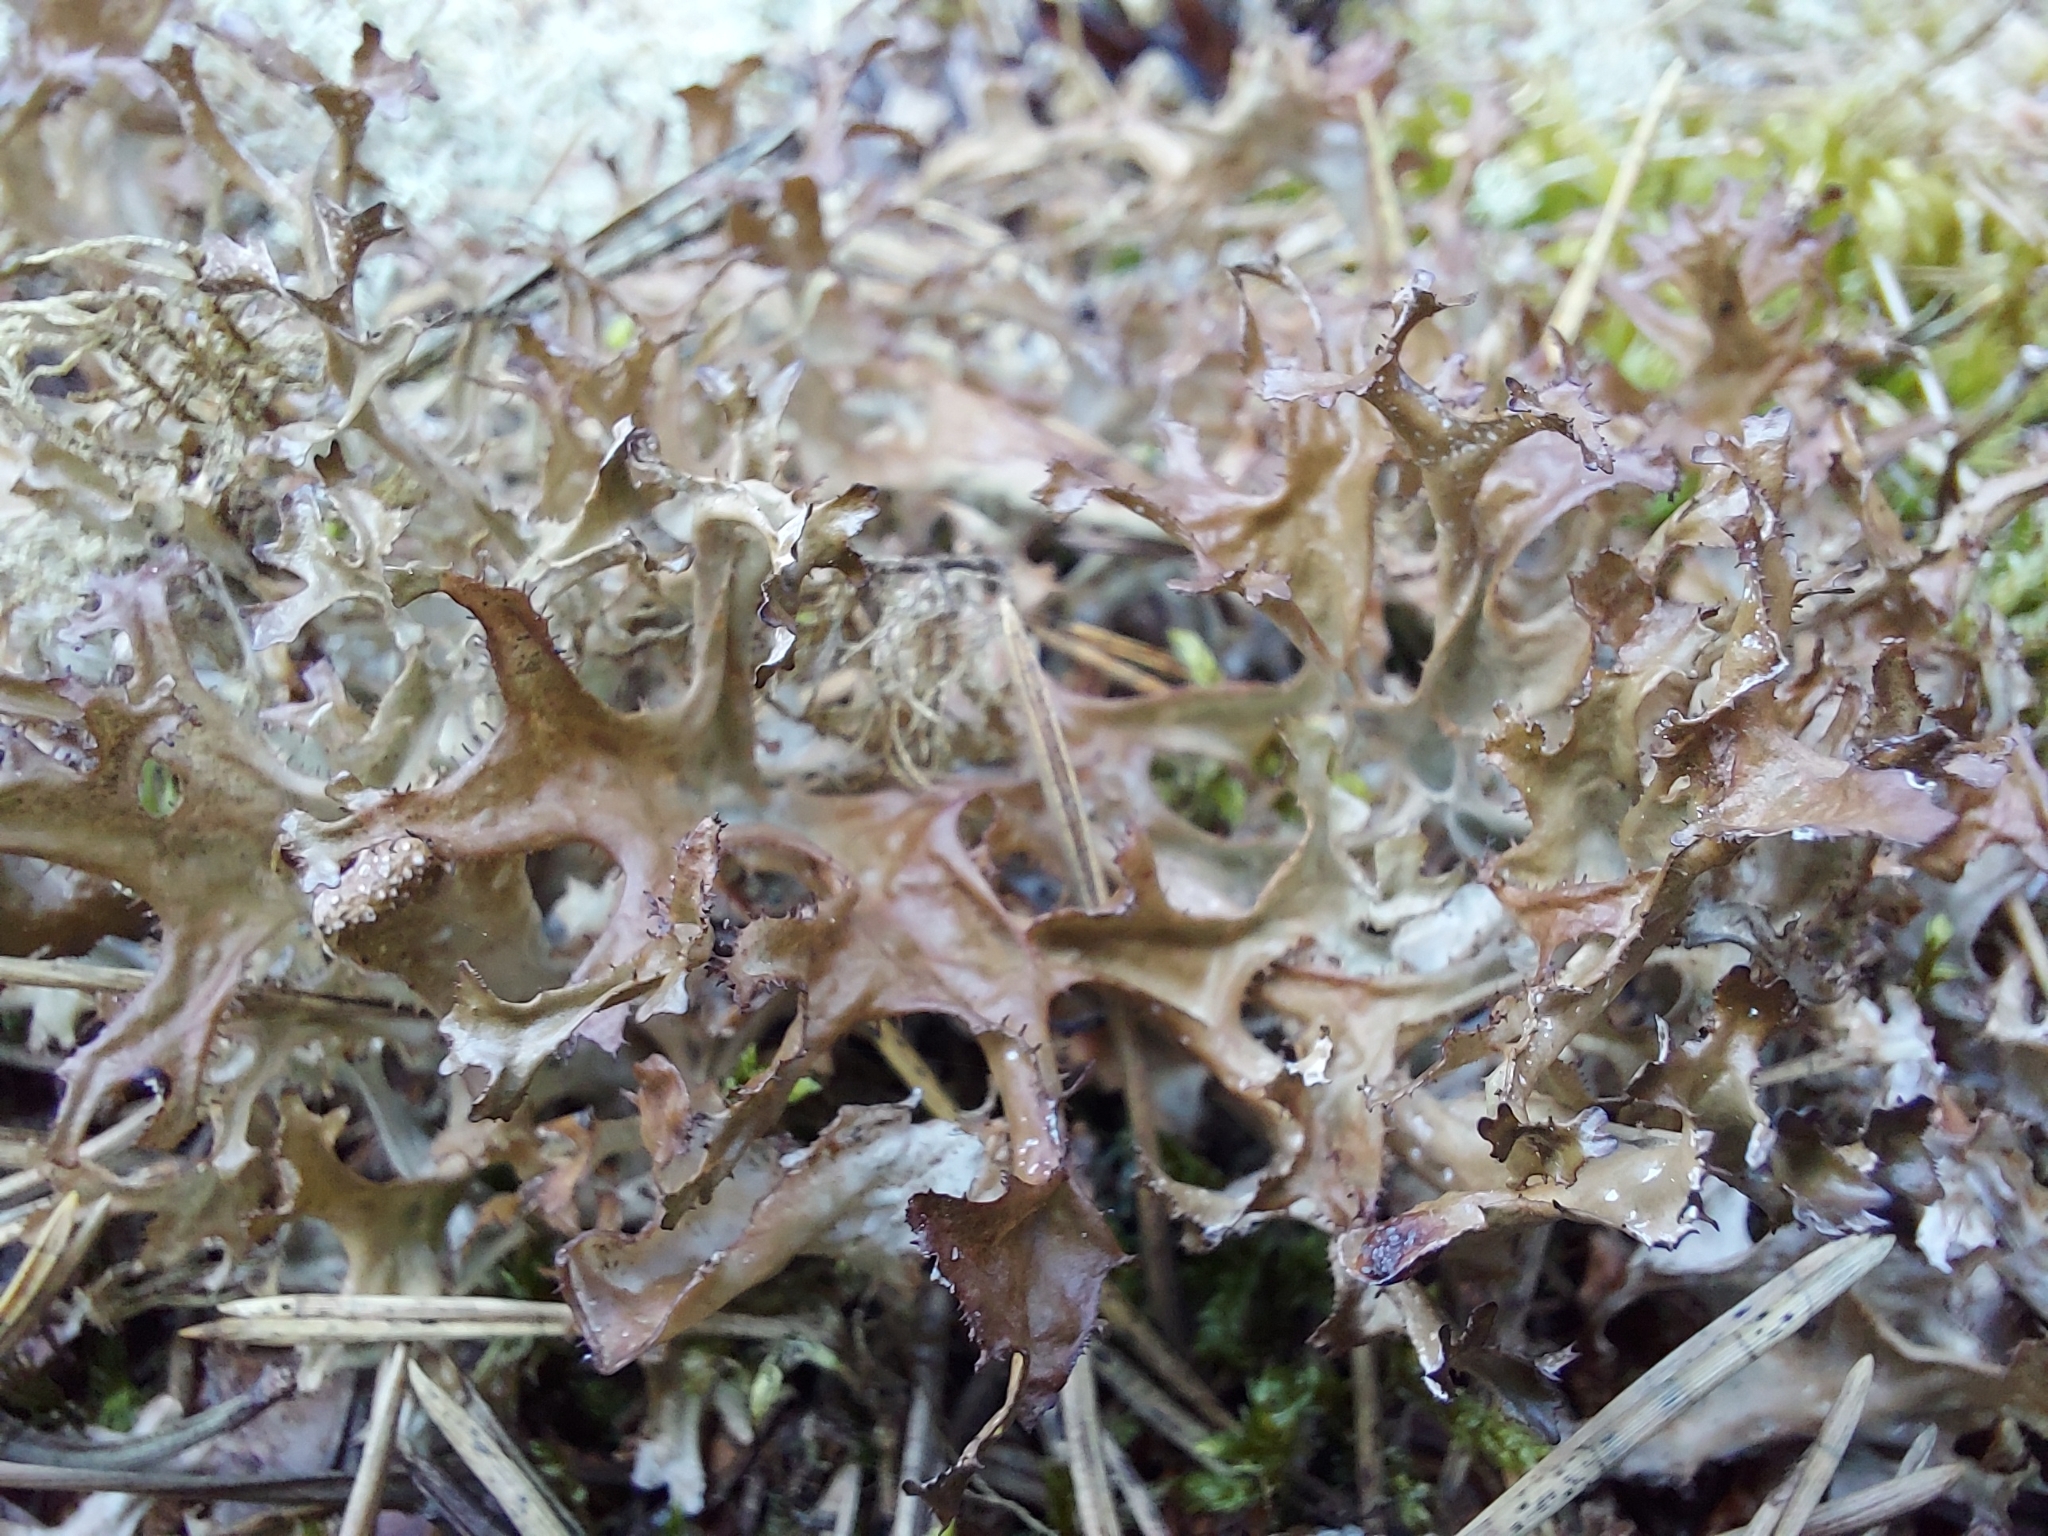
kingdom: Fungi
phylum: Ascomycota
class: Lecanoromycetes
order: Lecanorales
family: Parmeliaceae
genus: Cetraria
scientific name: Cetraria islandica
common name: Iceland lichen
